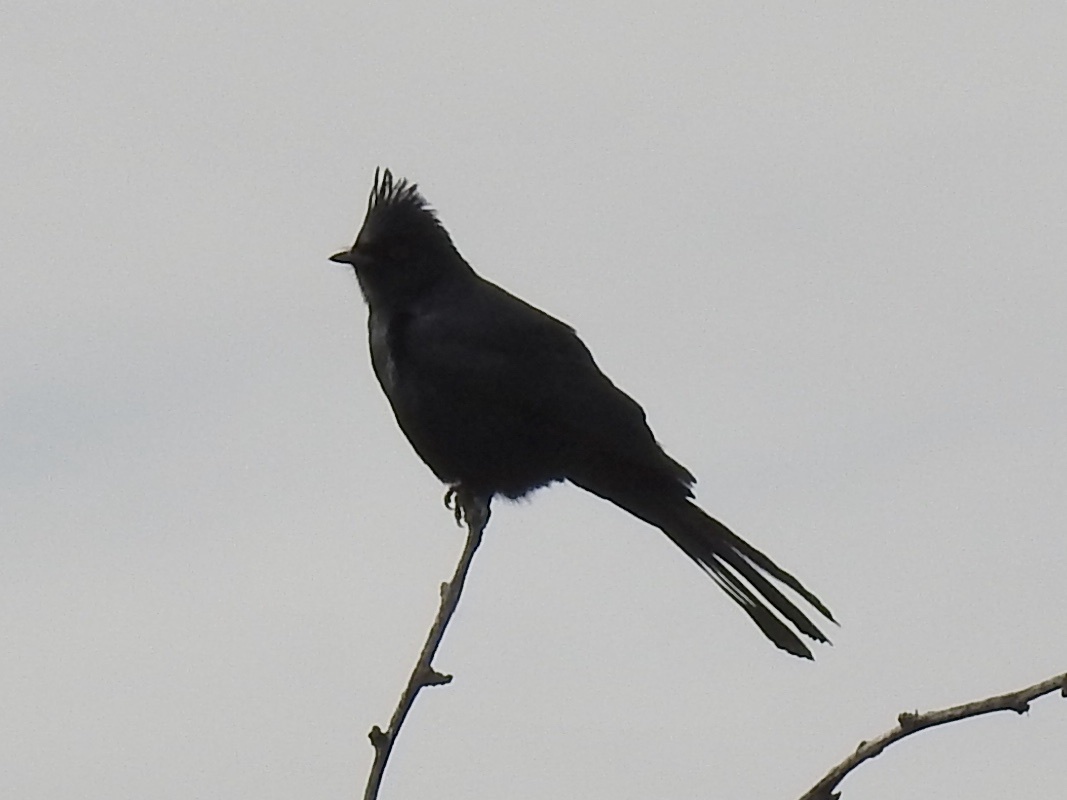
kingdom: Animalia
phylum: Chordata
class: Aves
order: Passeriformes
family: Ptilogonatidae
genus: Phainopepla
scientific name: Phainopepla nitens
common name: Phainopepla
